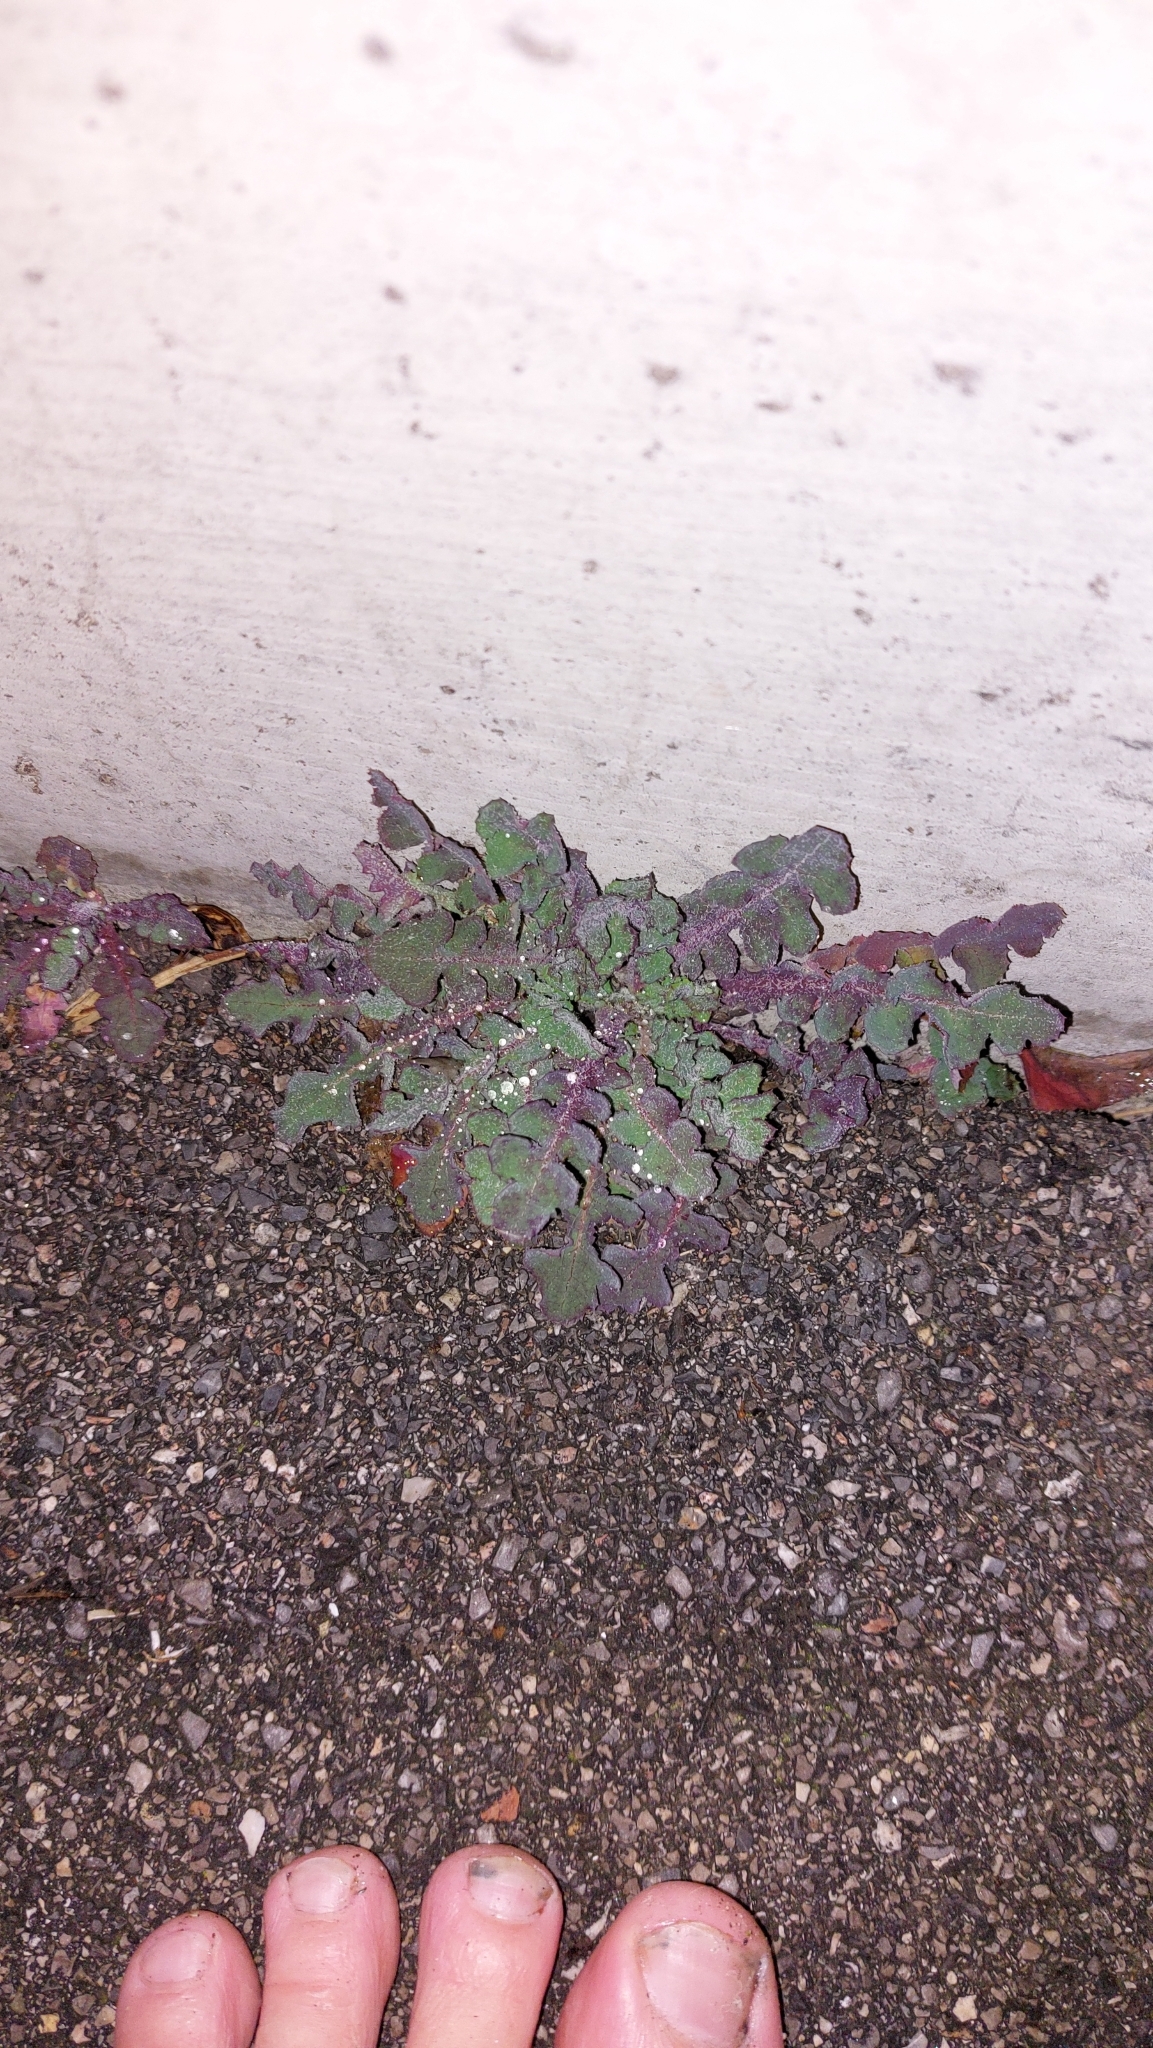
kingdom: Plantae
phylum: Tracheophyta
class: Magnoliopsida
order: Asterales
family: Asteraceae
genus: Sonchus
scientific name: Sonchus oleraceus
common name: Common sowthistle
